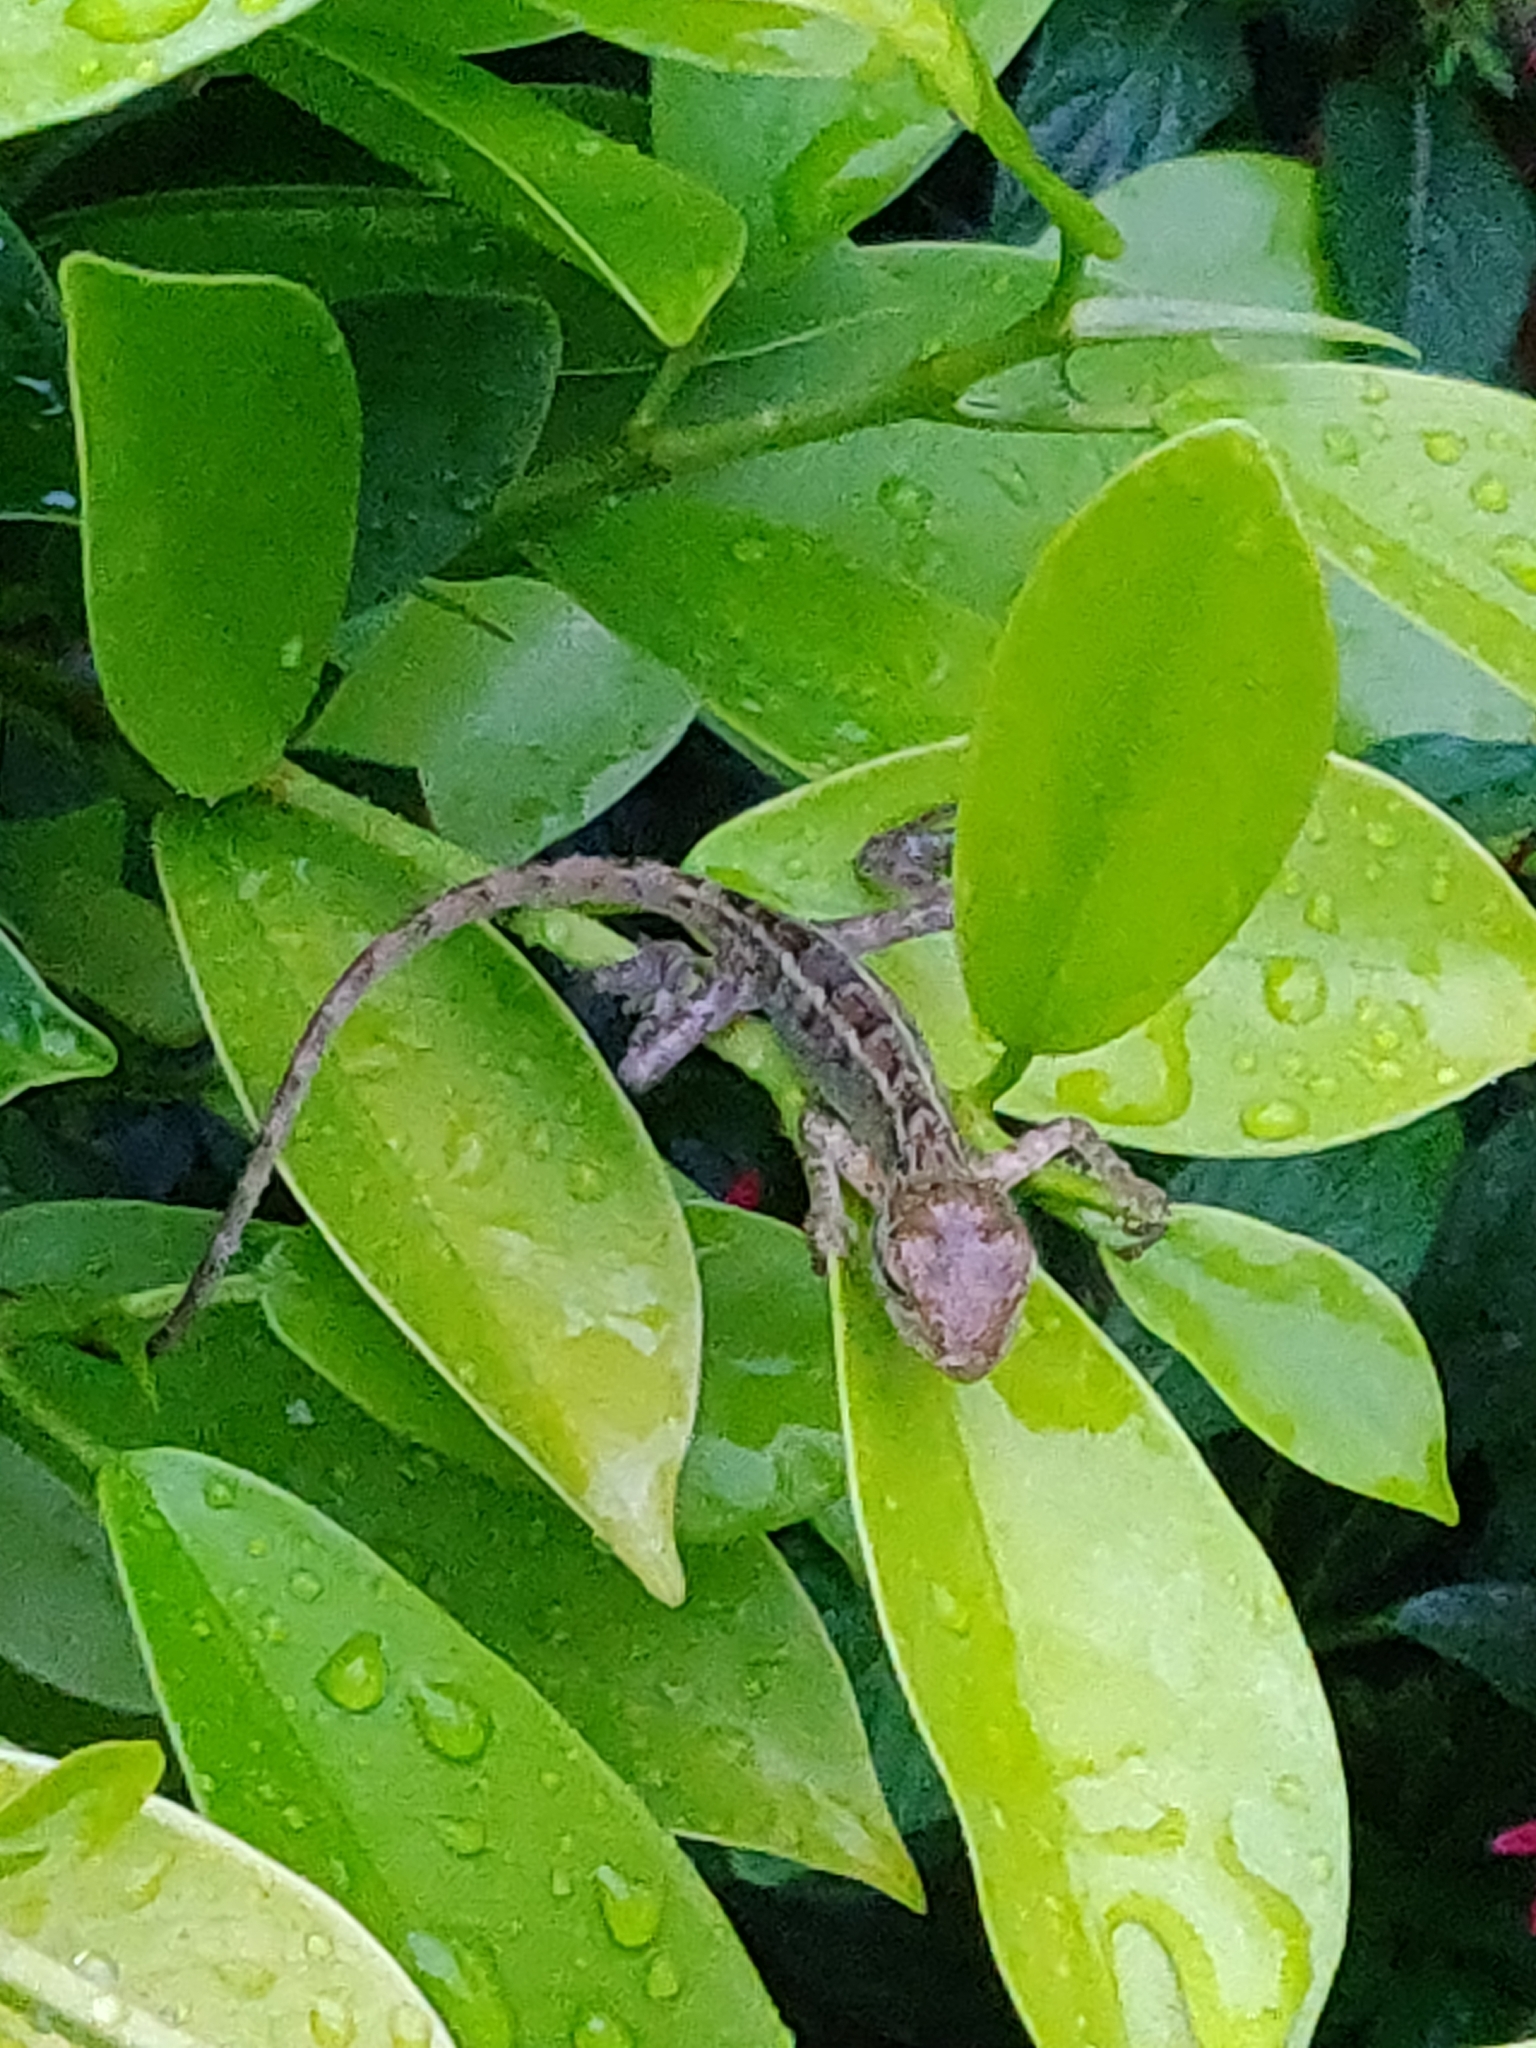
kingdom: Animalia
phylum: Chordata
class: Squamata
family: Agamidae
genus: Calotes
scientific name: Calotes versicolor
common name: Oriental garden lizard
